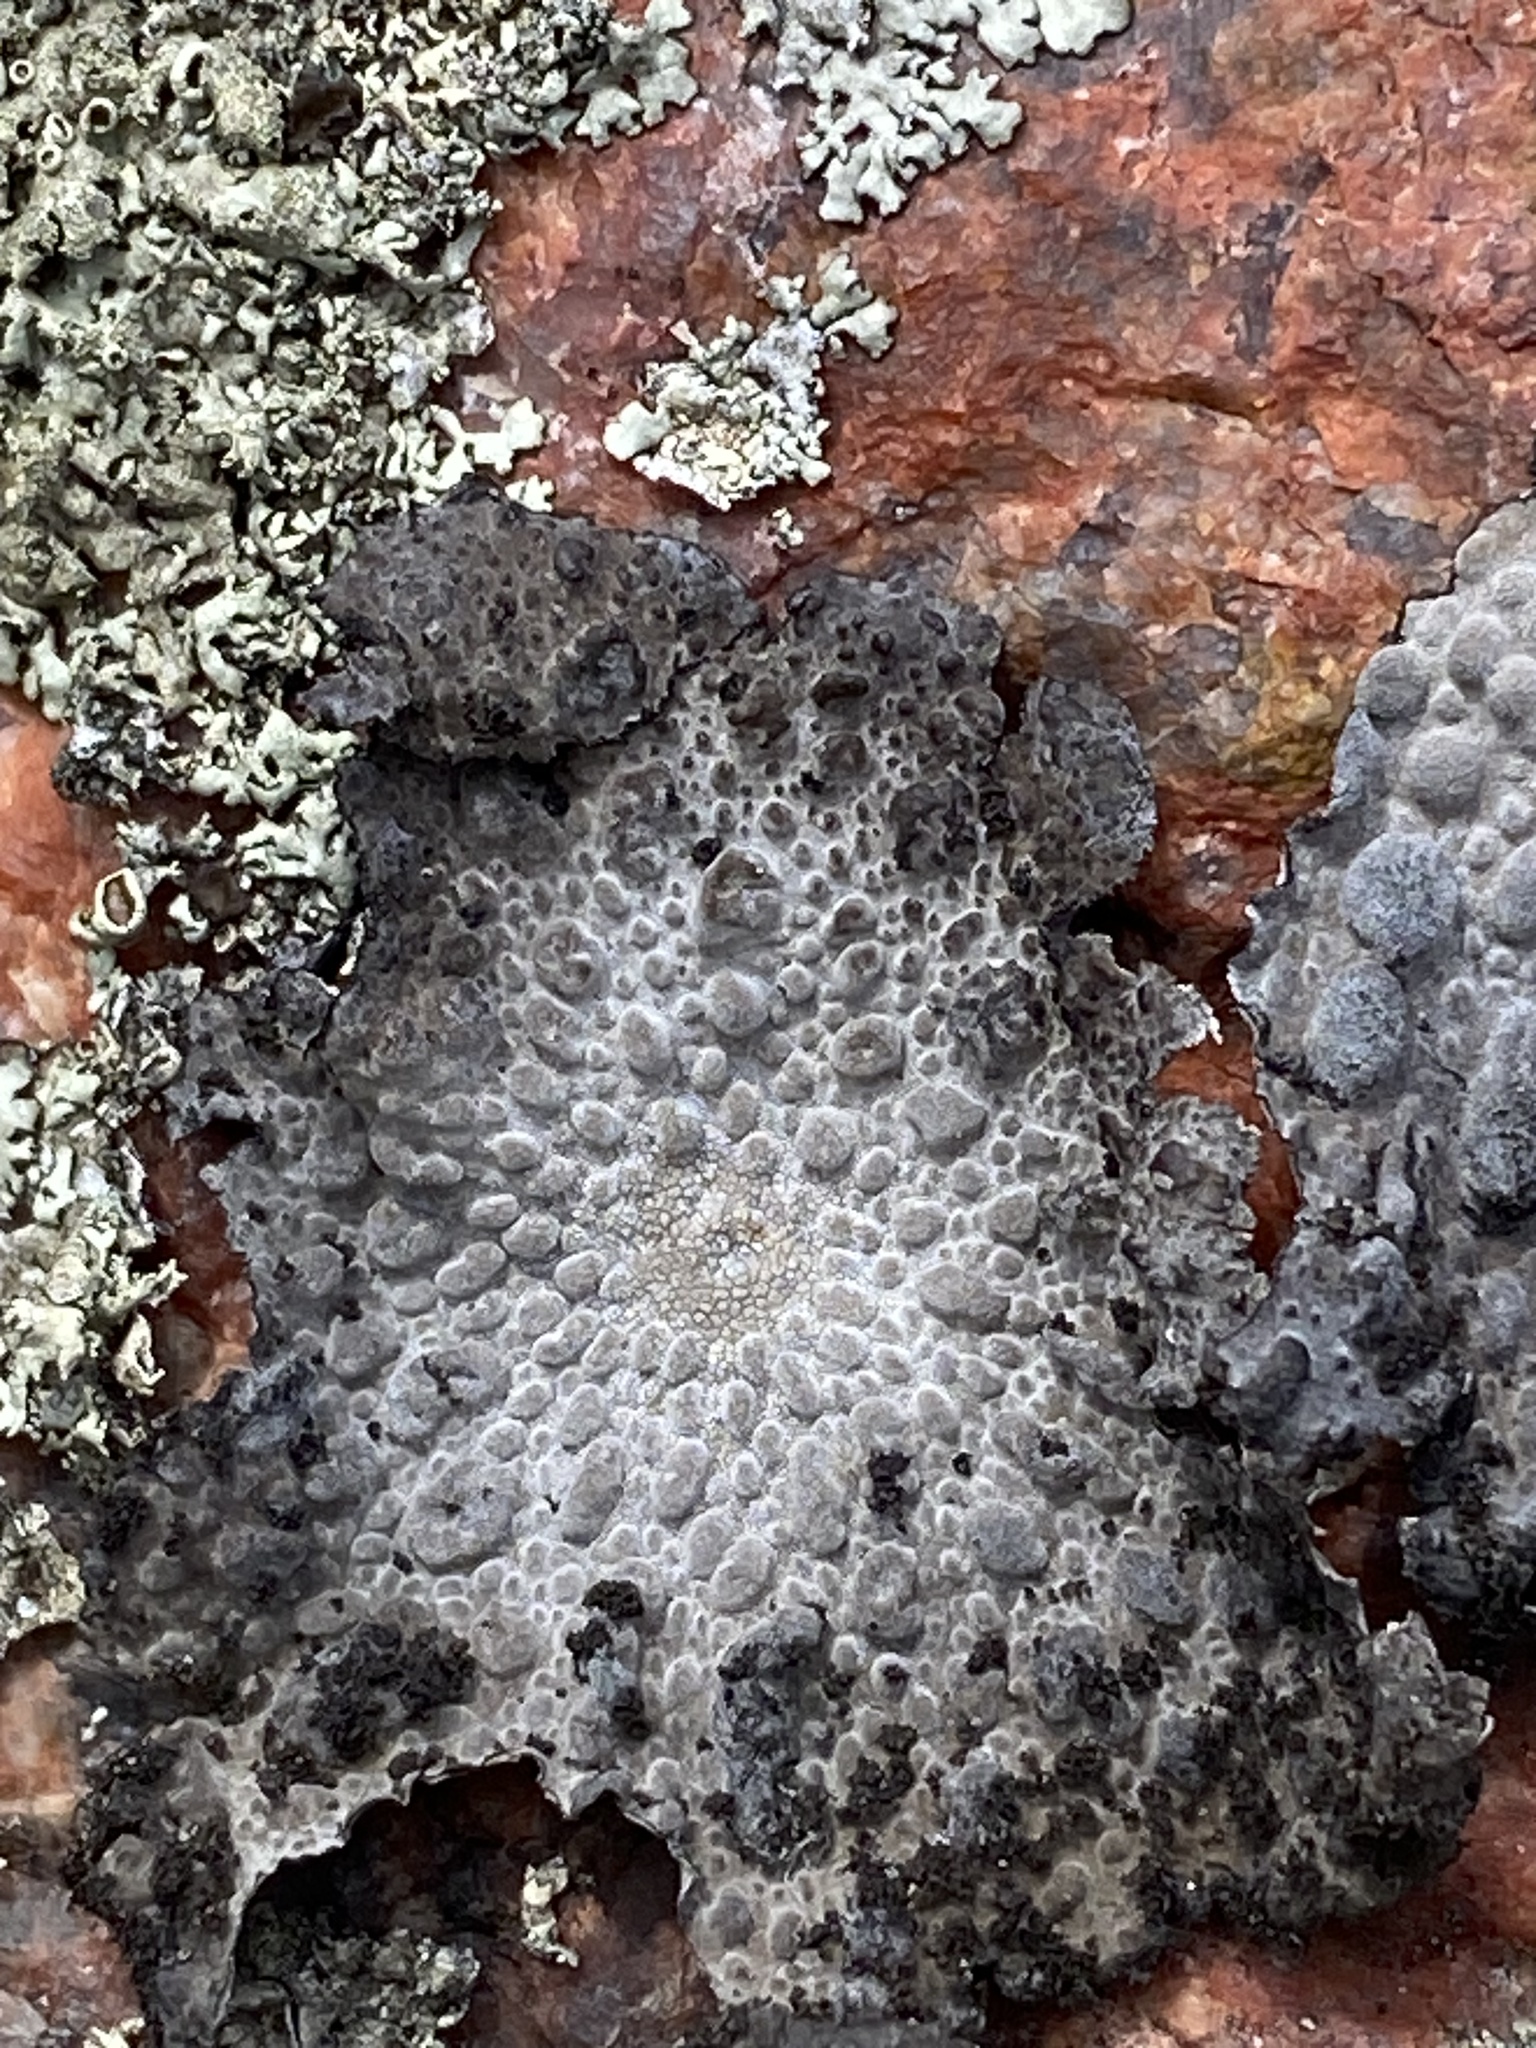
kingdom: Fungi
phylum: Ascomycota
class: Lecanoromycetes
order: Umbilicariales
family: Umbilicariaceae
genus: Lasallia
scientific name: Lasallia pustulata
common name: Blistered toadskin lichen
